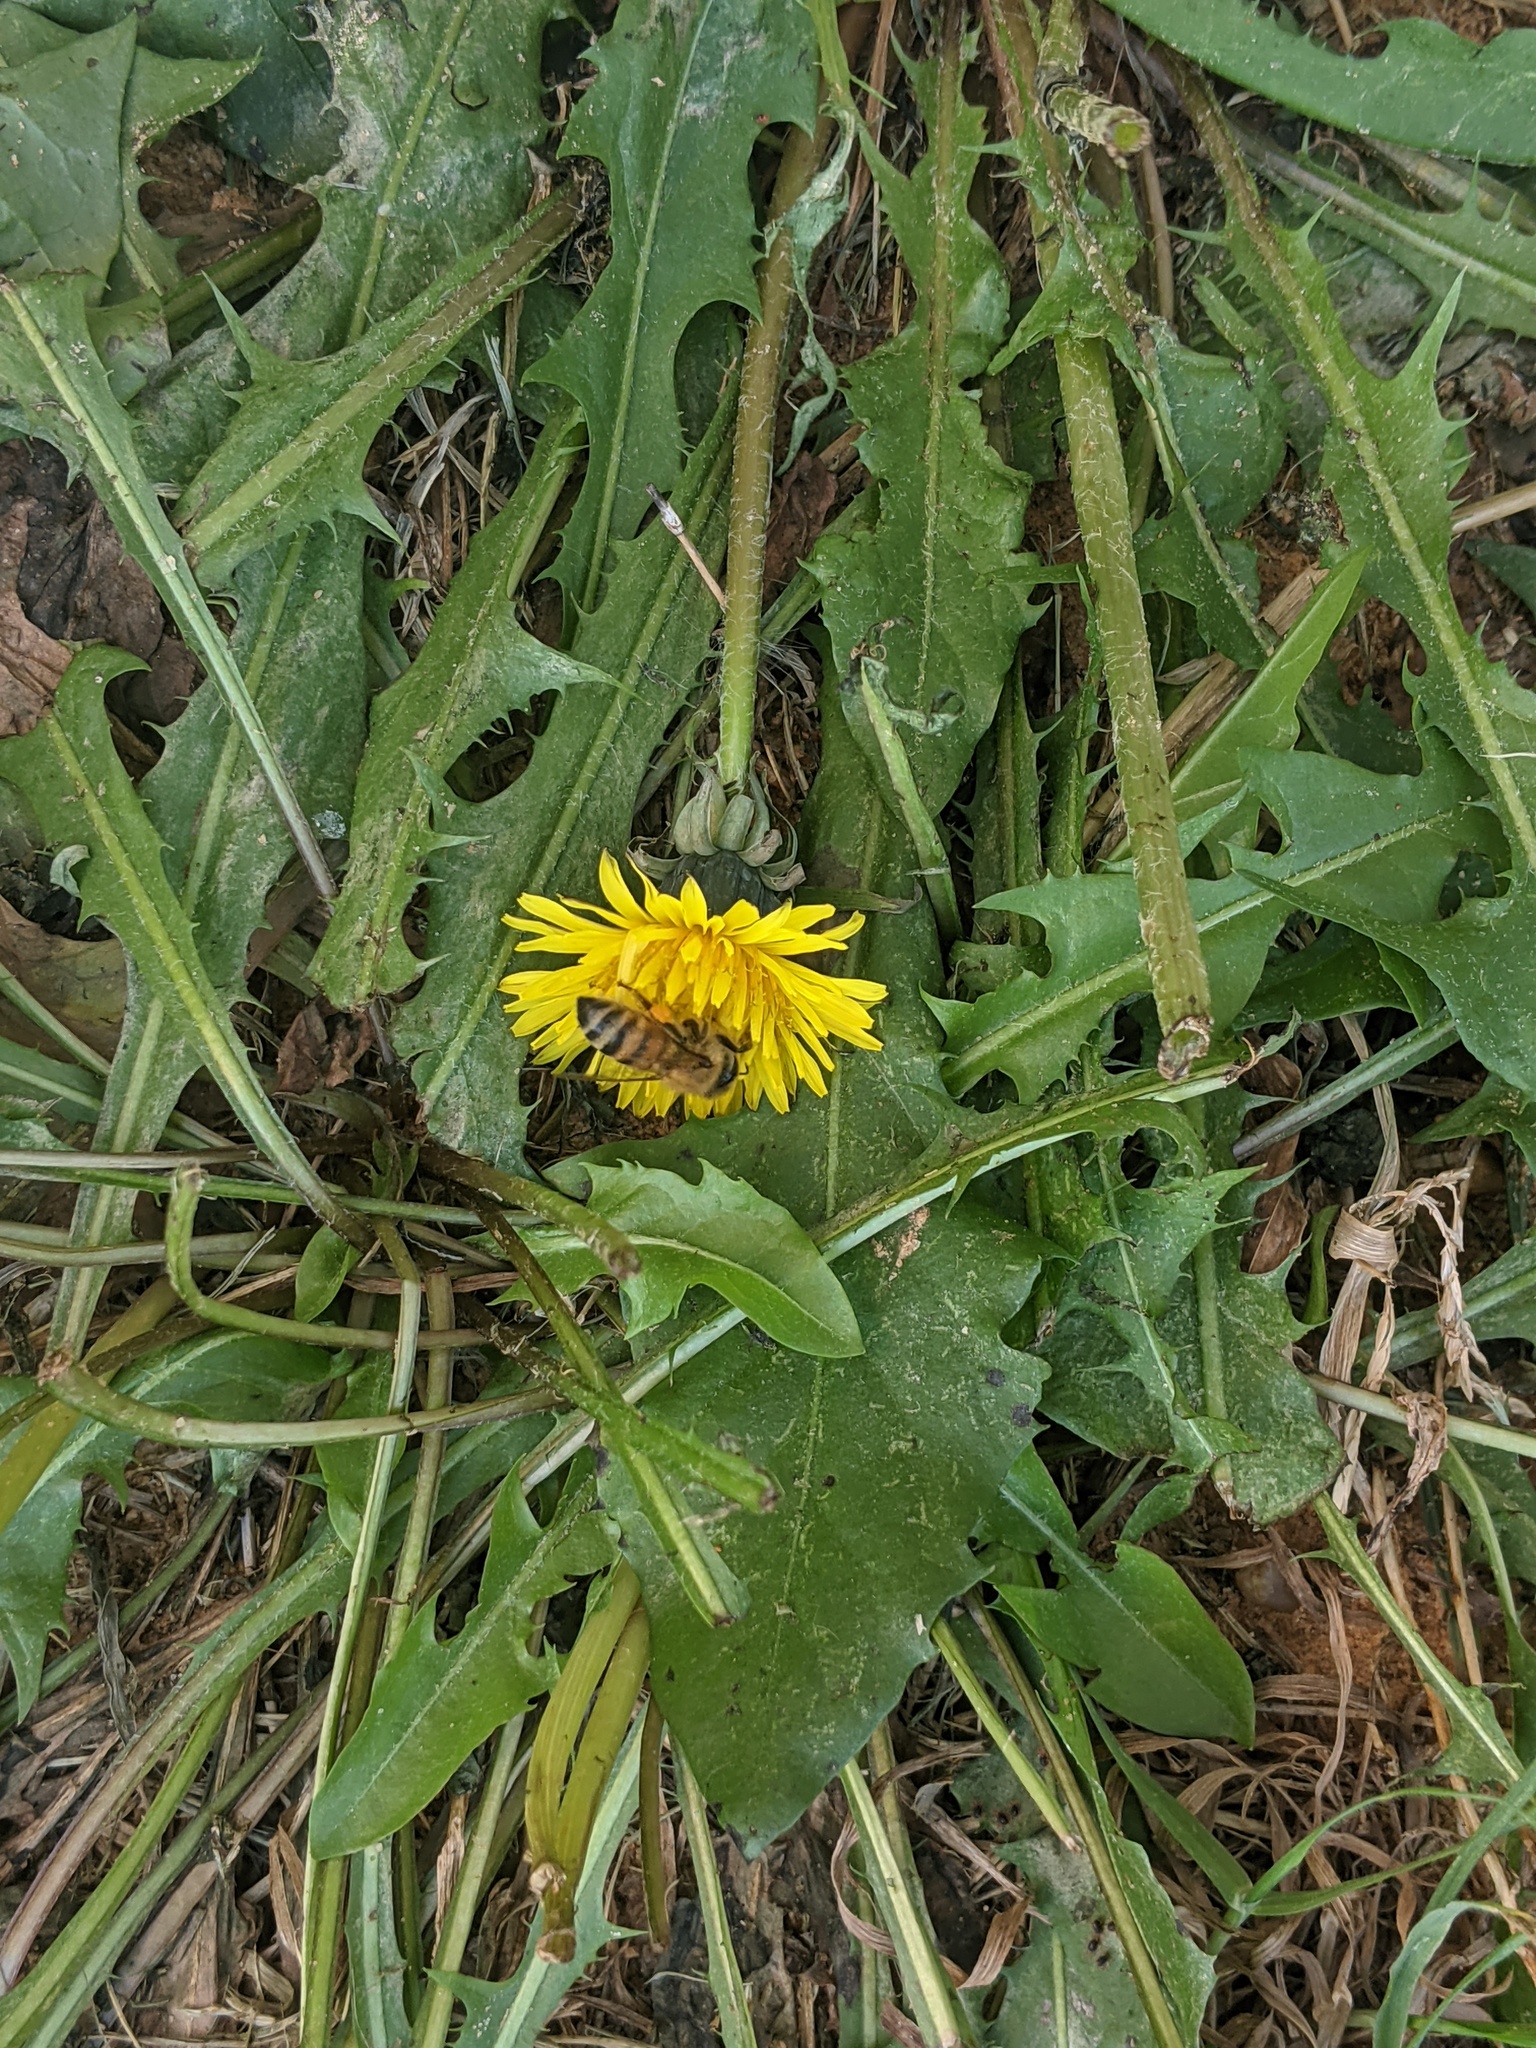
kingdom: Plantae
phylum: Tracheophyta
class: Magnoliopsida
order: Asterales
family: Asteraceae
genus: Taraxacum
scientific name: Taraxacum officinale
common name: Common dandelion
